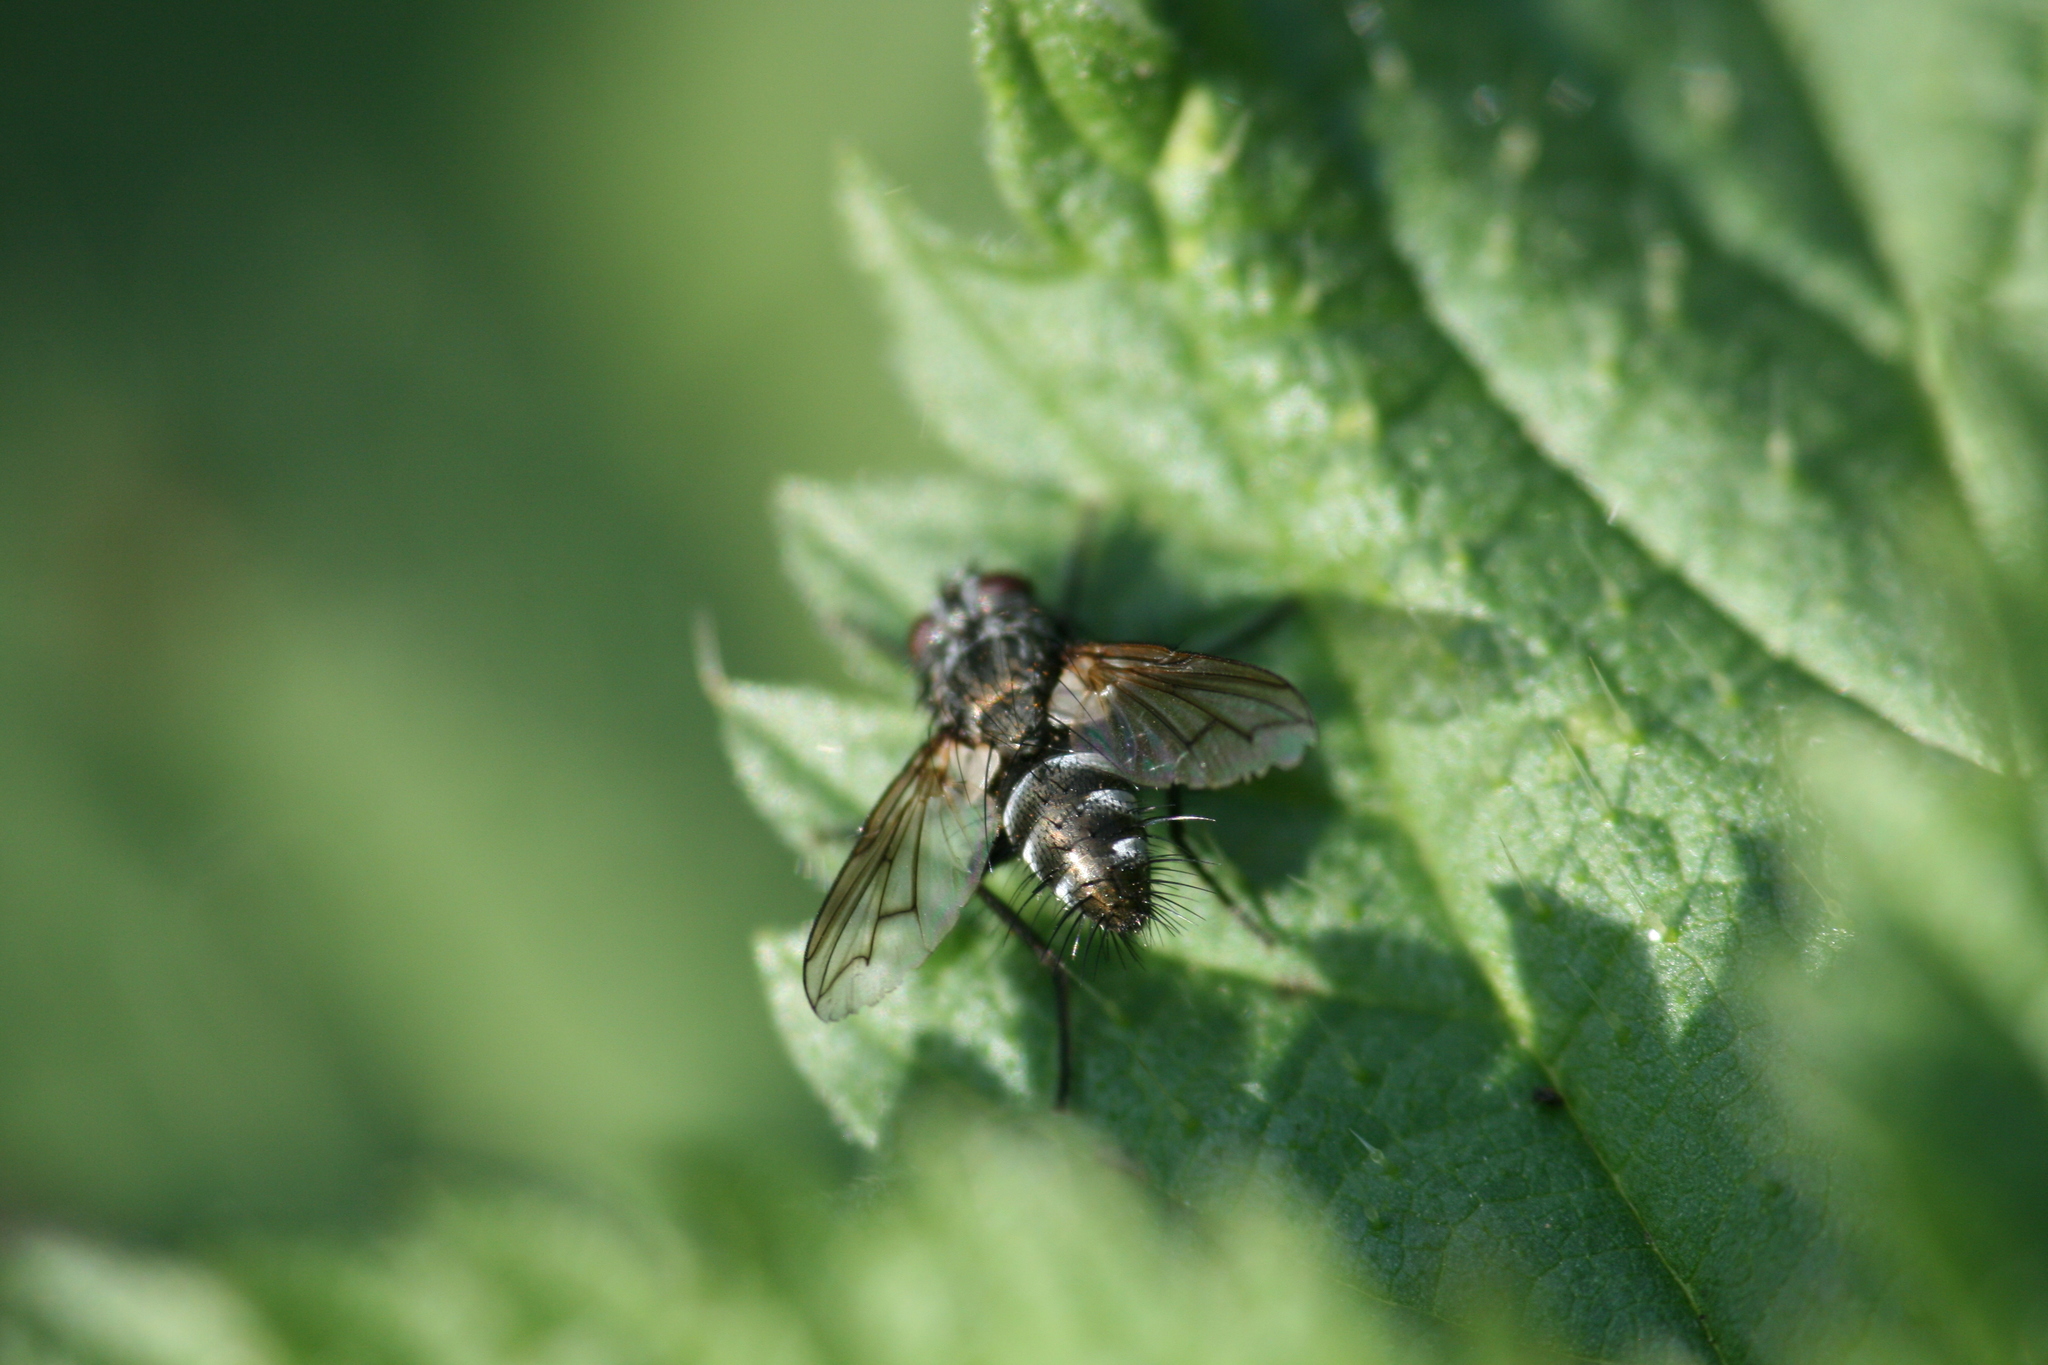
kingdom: Animalia
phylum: Arthropoda
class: Insecta
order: Diptera
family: Tachinidae
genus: Periscepsia
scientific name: Periscepsia spathulata
